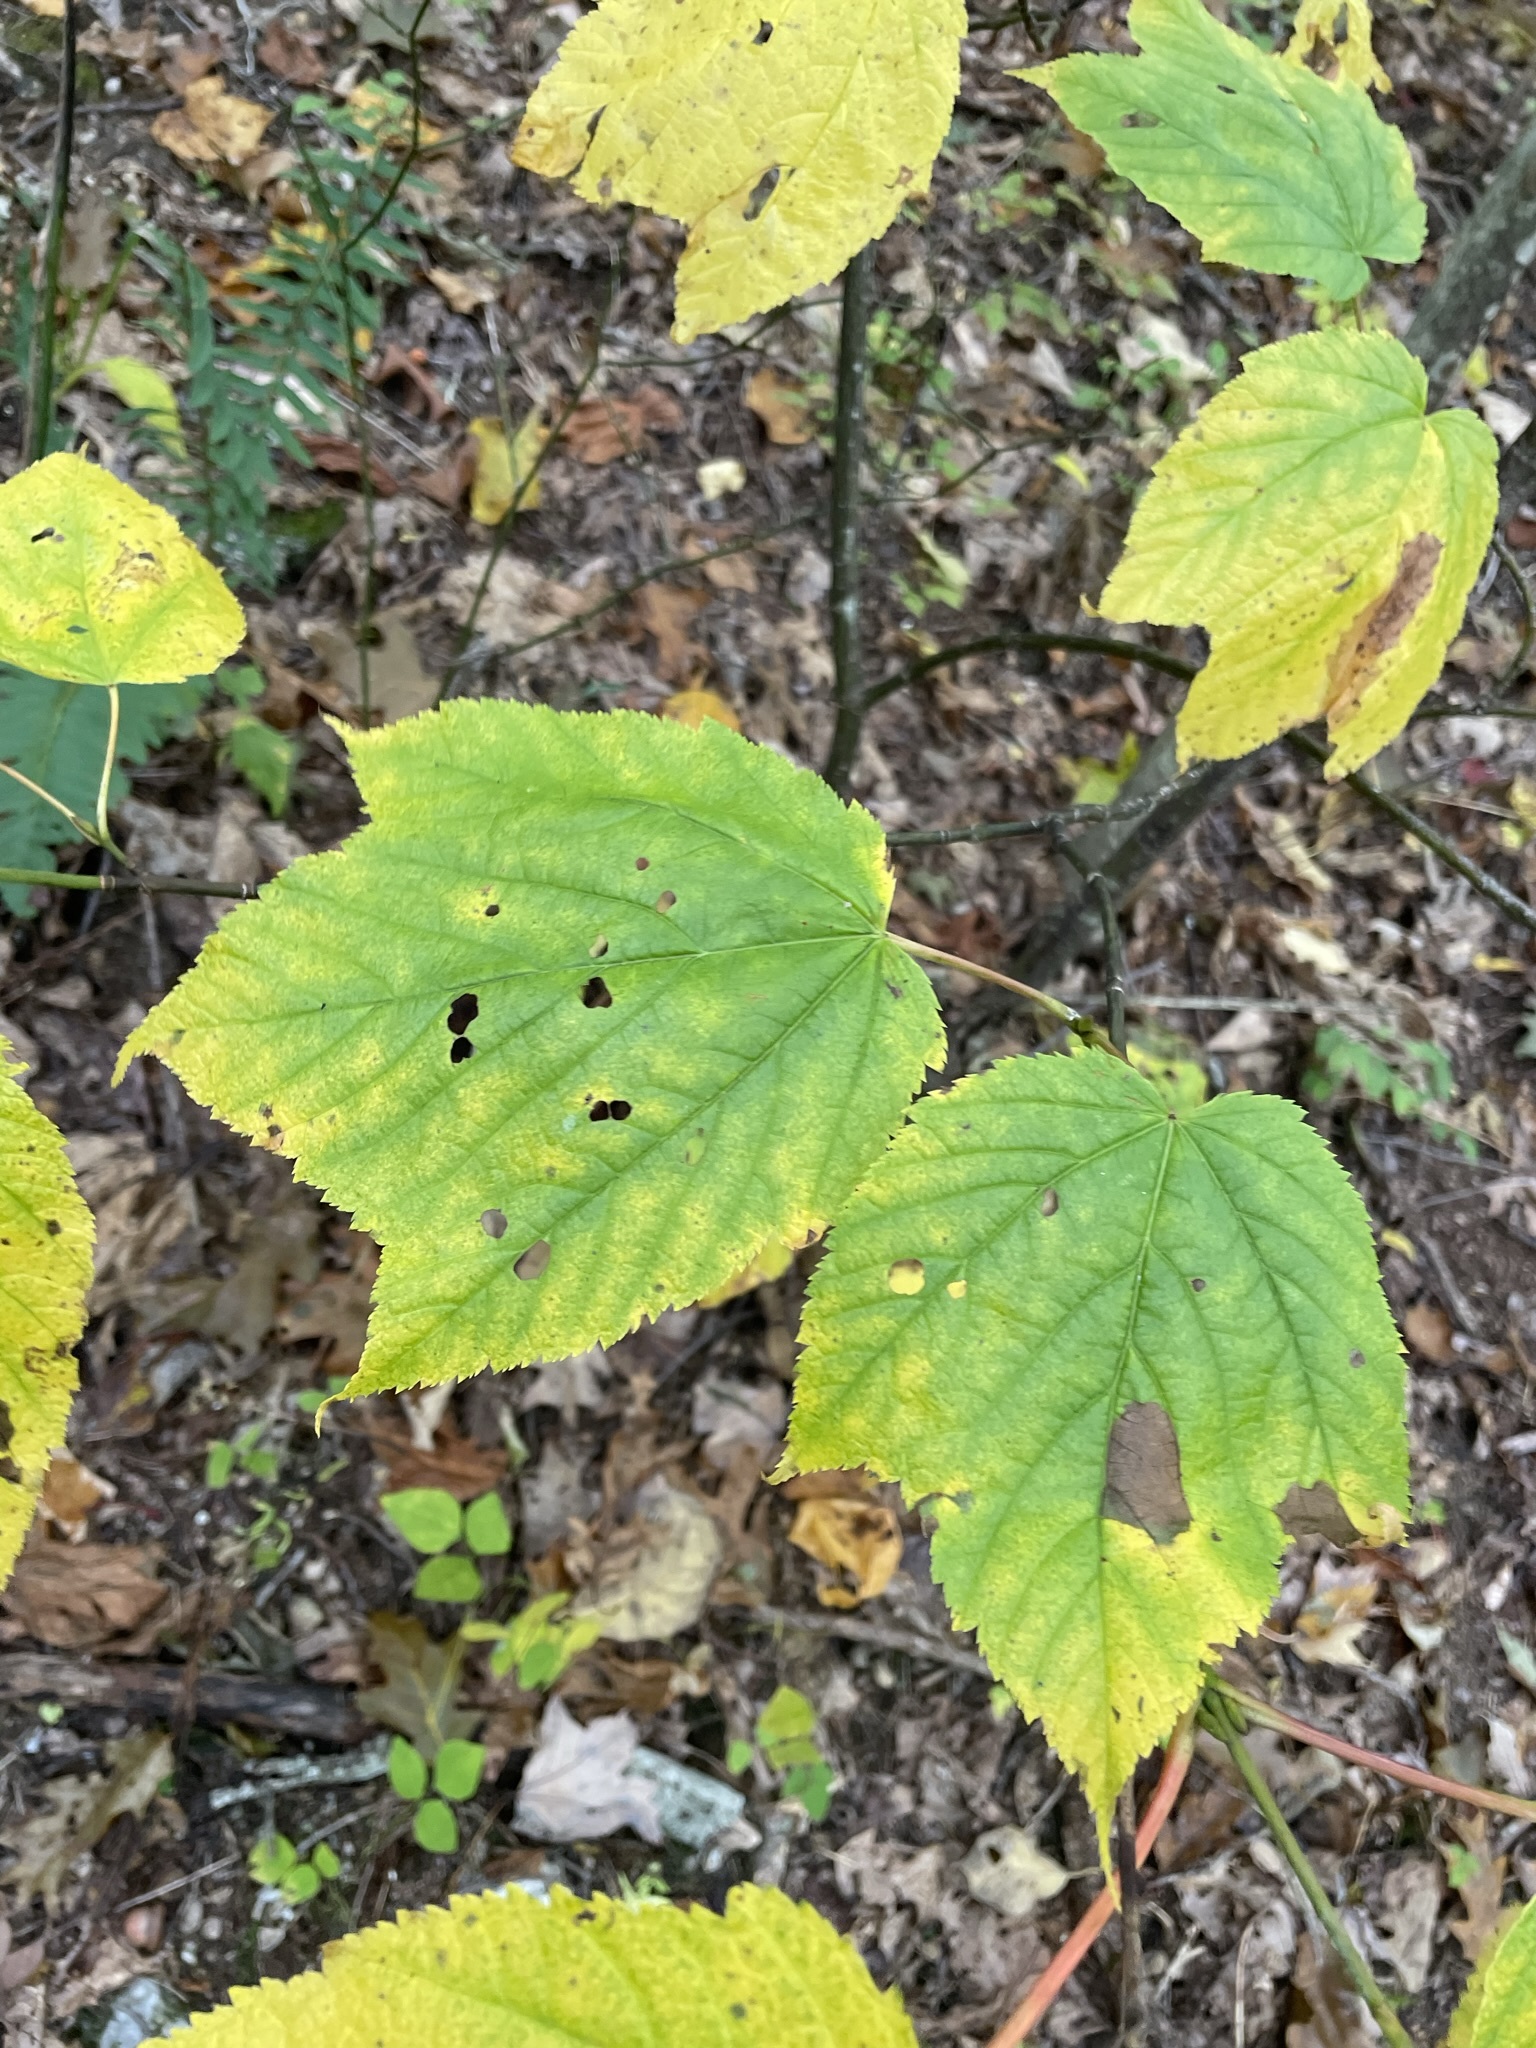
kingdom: Plantae
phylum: Tracheophyta
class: Magnoliopsida
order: Sapindales
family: Sapindaceae
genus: Acer
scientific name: Acer pensylvanicum
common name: Moosewood
